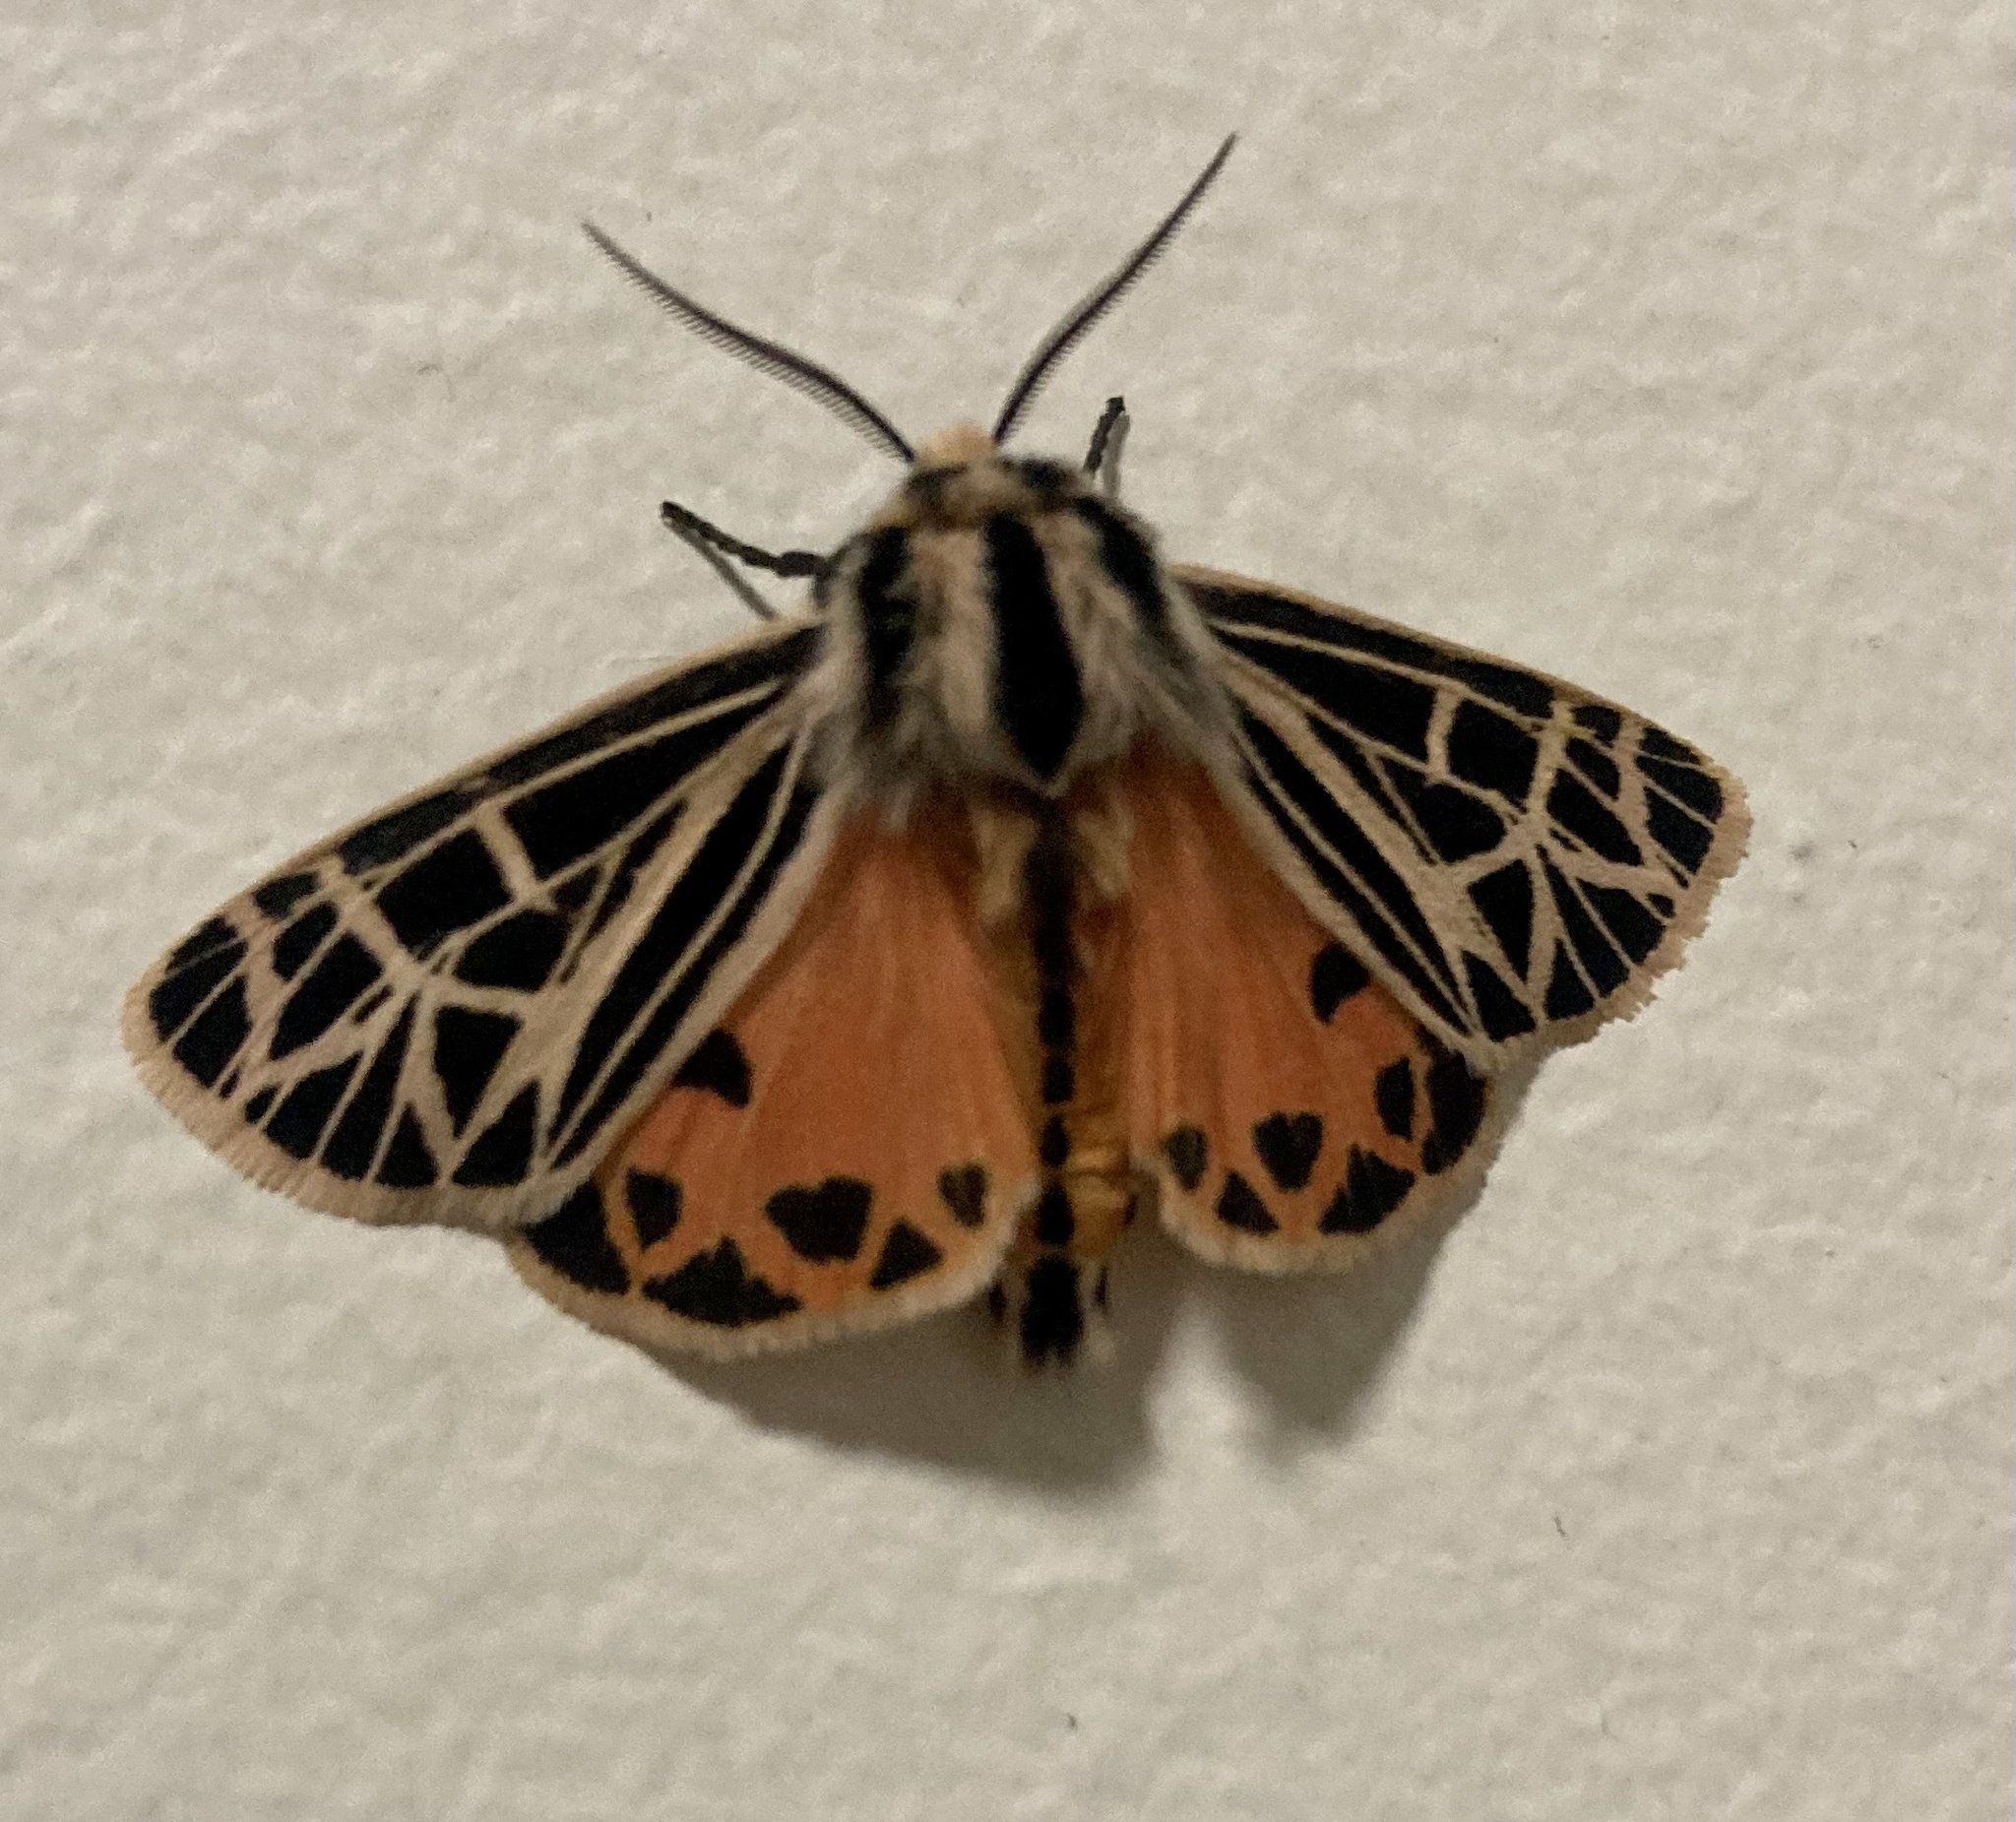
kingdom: Animalia
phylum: Arthropoda
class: Insecta
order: Lepidoptera
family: Erebidae
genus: Grammia
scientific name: Grammia parthenice
